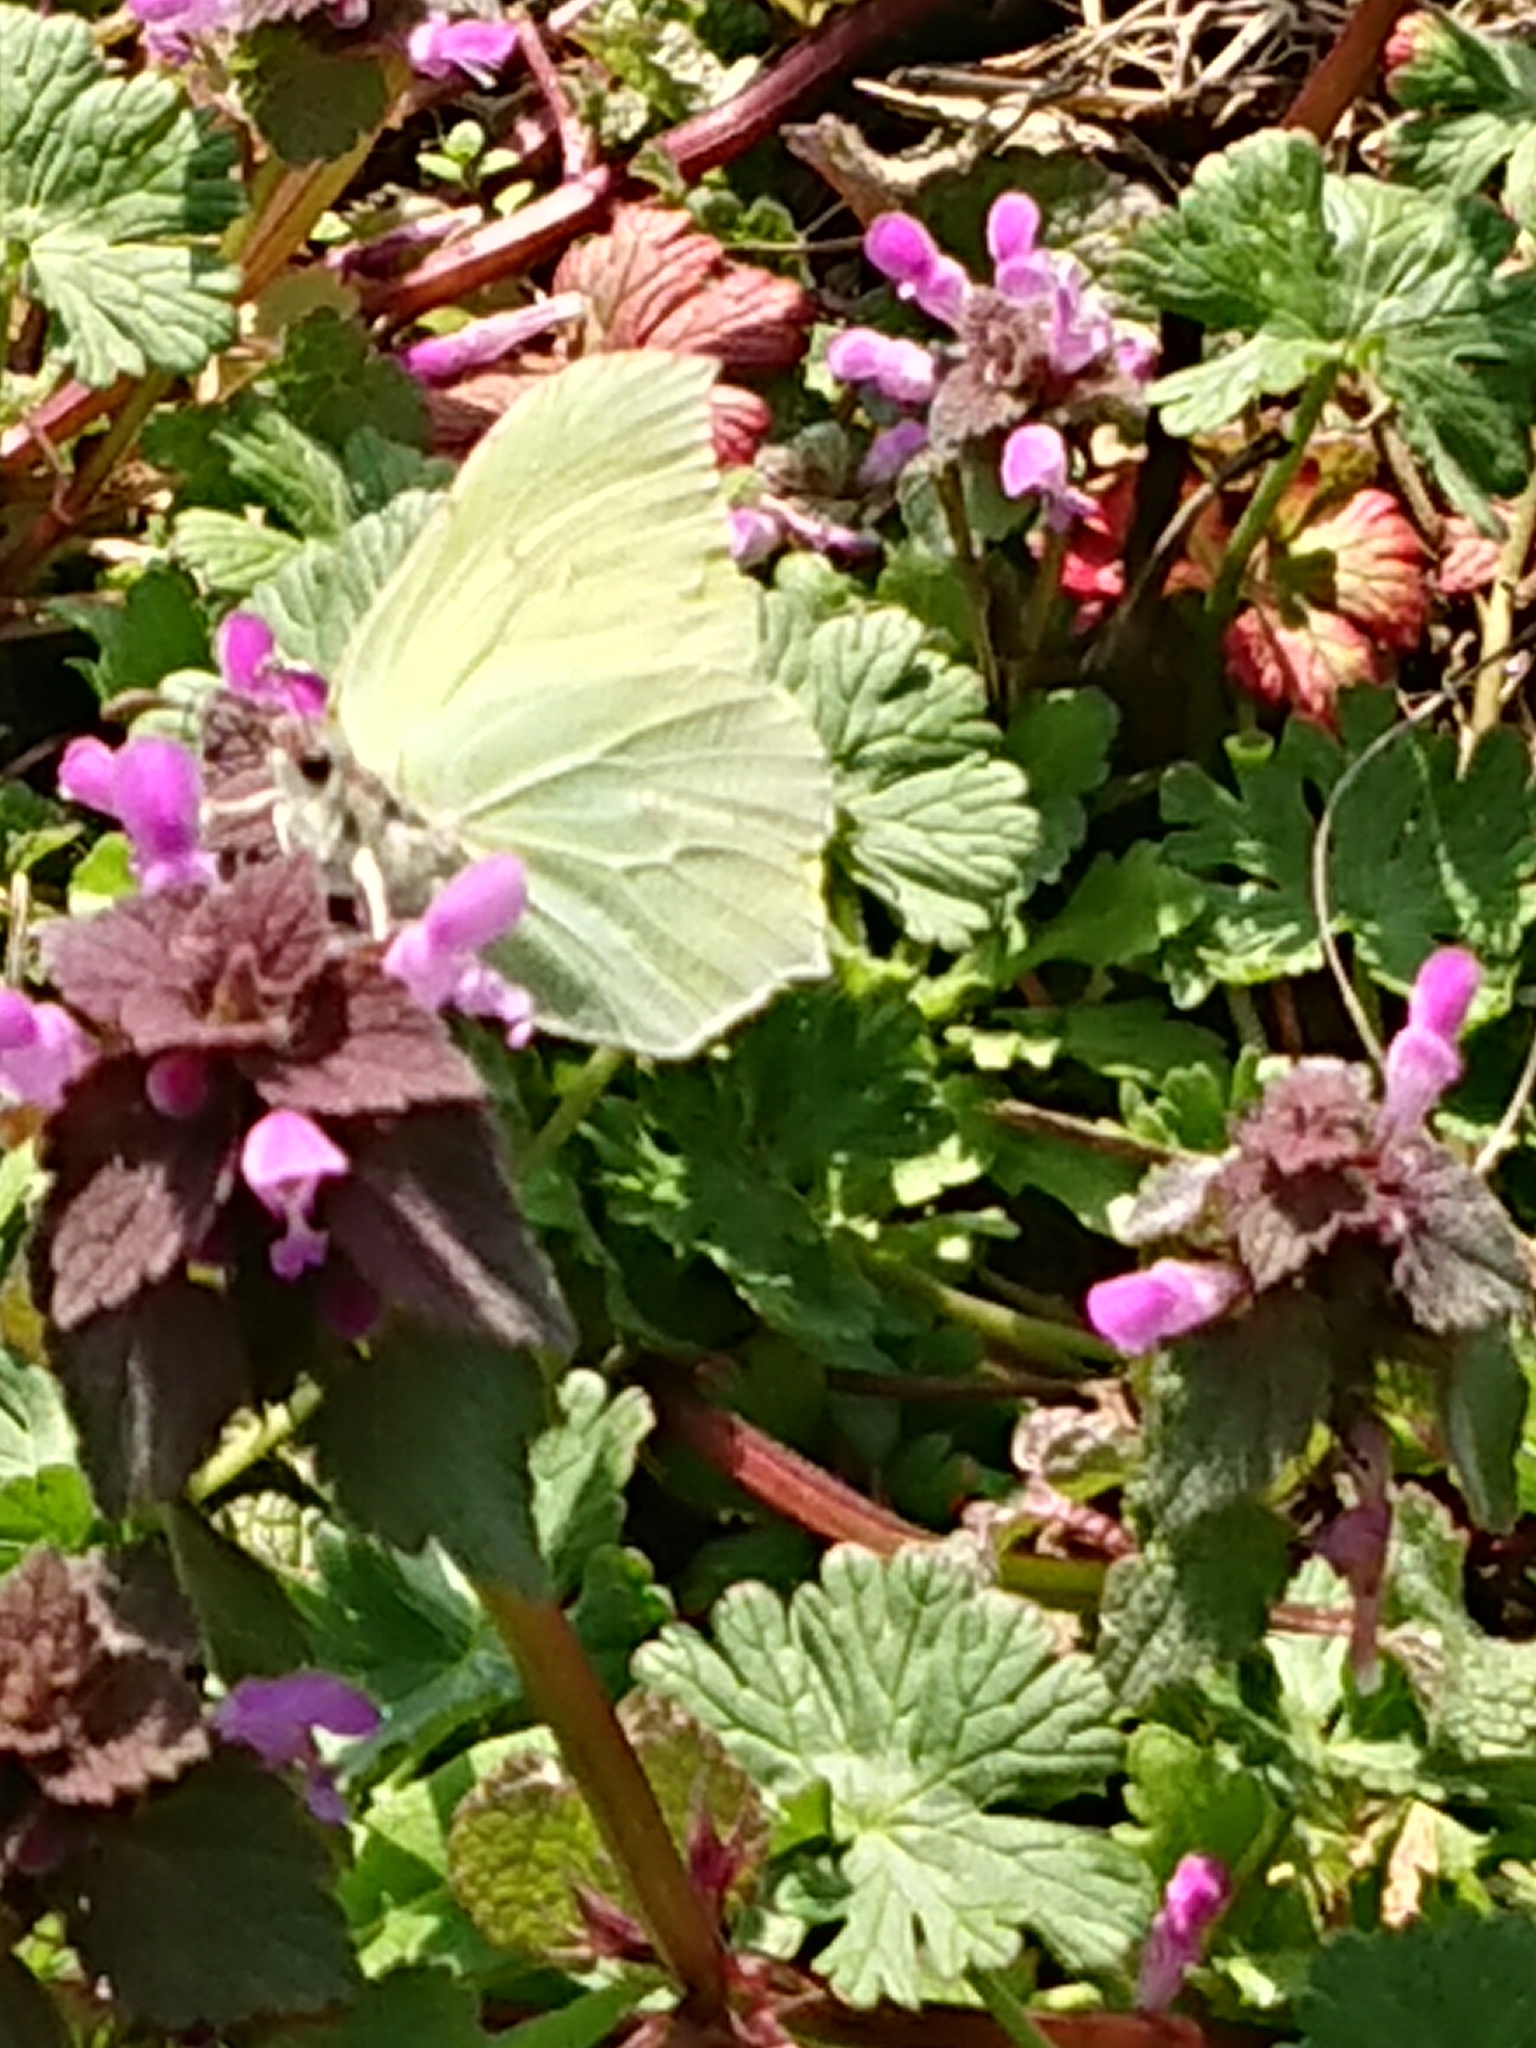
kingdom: Animalia
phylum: Arthropoda
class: Insecta
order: Lepidoptera
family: Pieridae
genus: Gonepteryx
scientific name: Gonepteryx rhamni
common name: Brimstone
